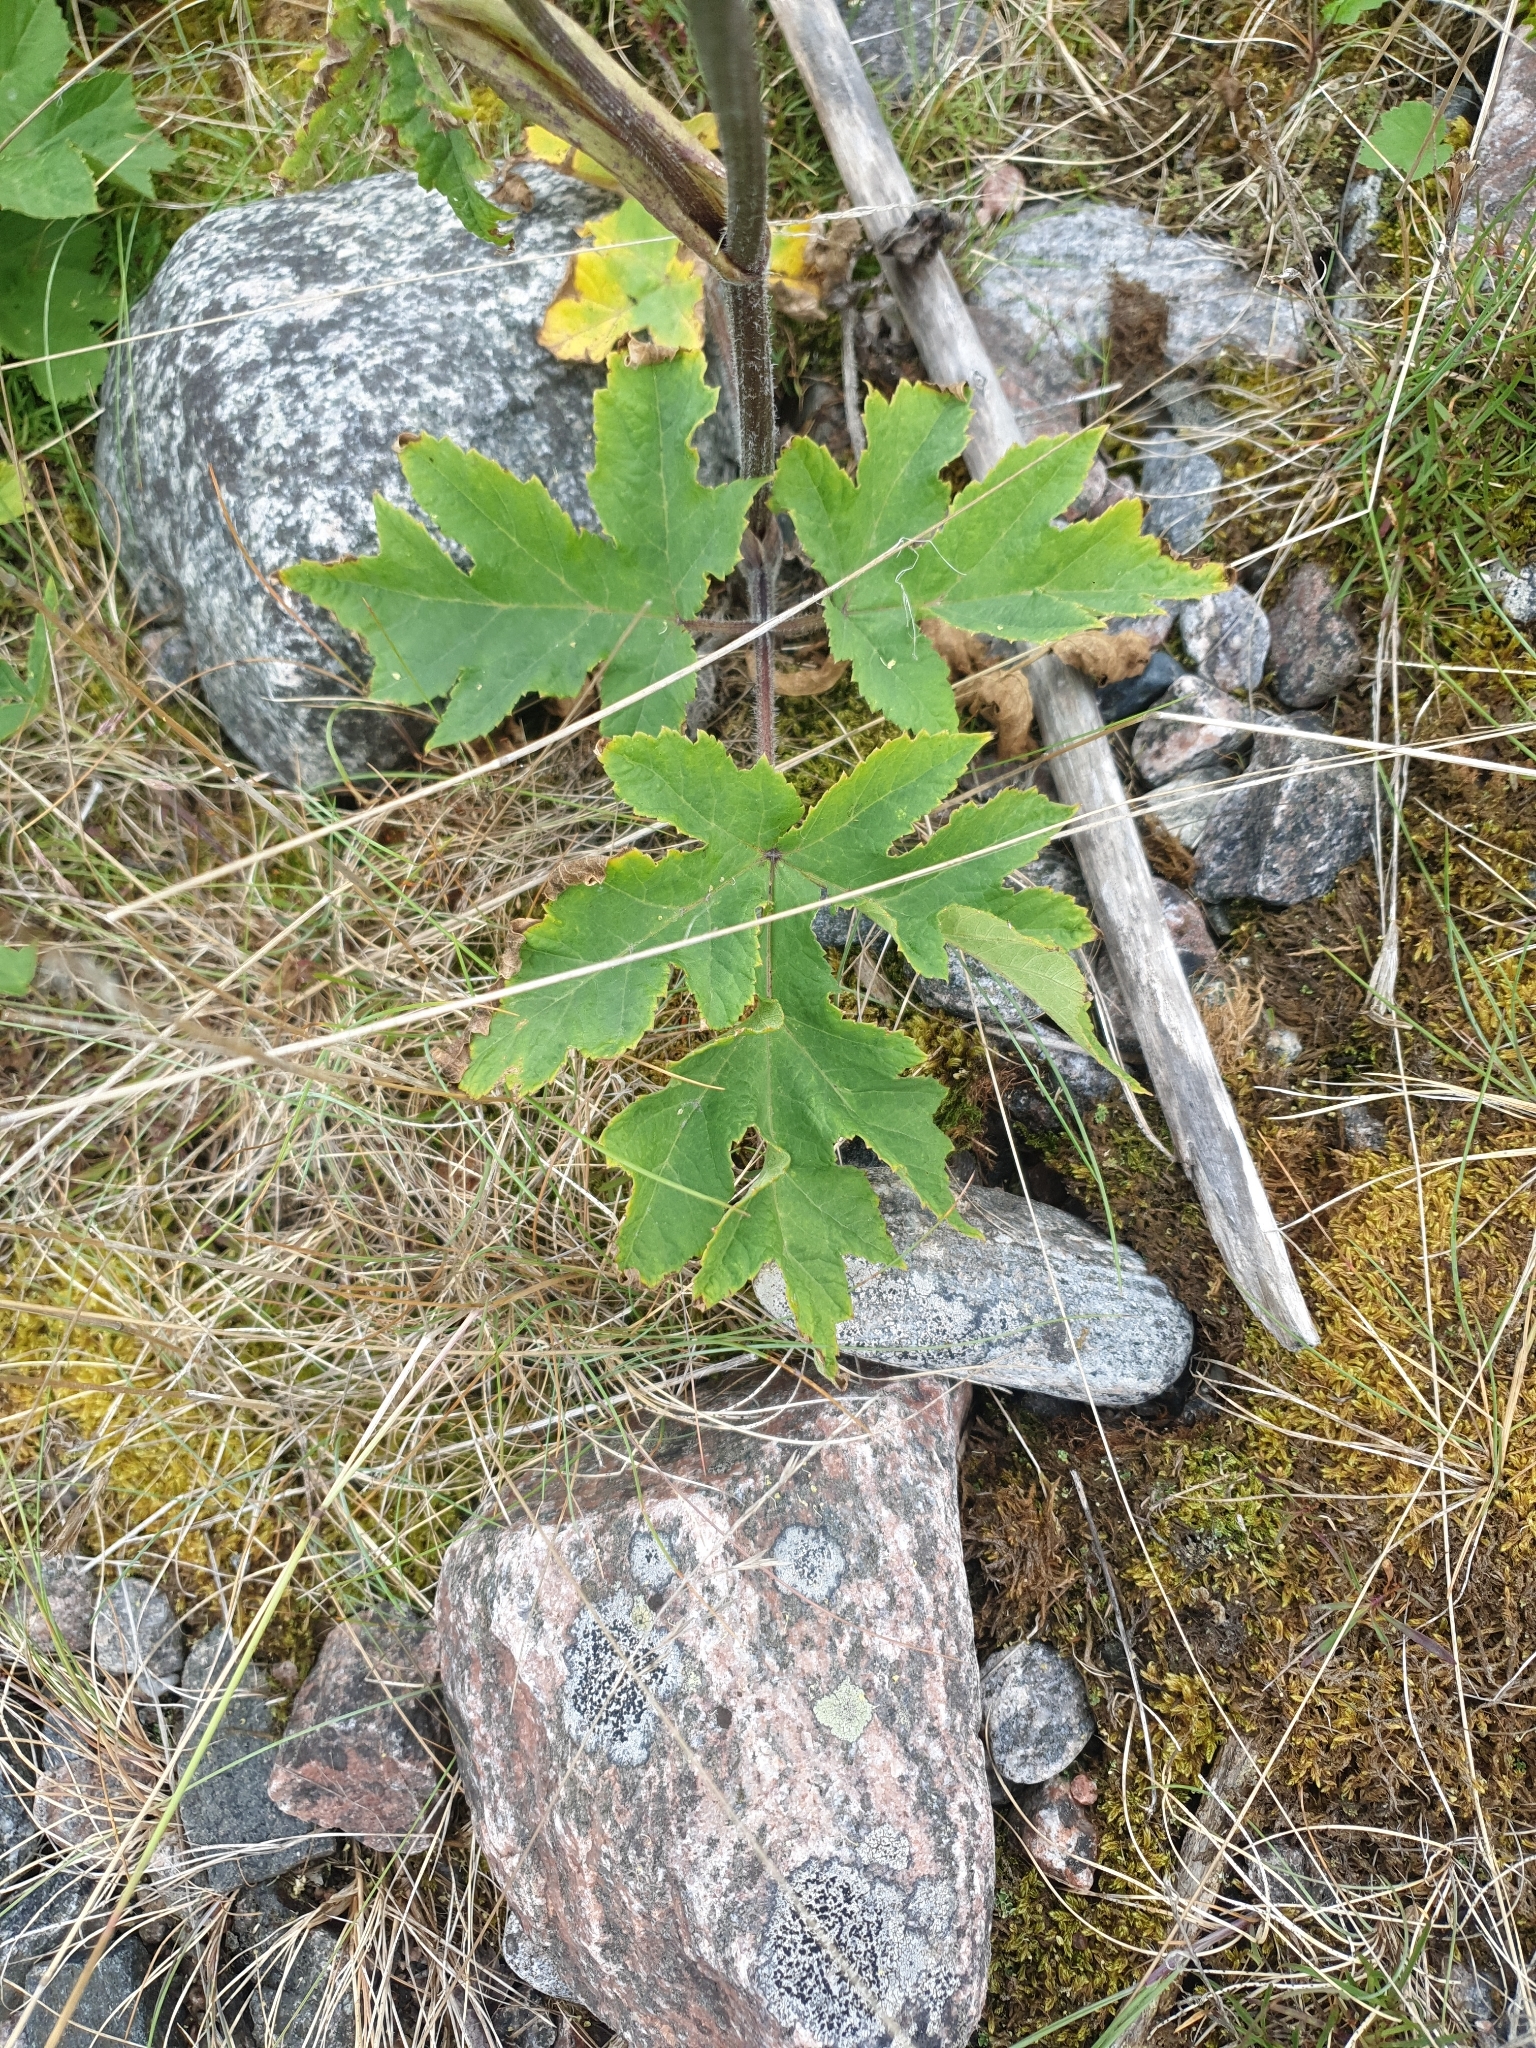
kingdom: Plantae
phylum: Tracheophyta
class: Magnoliopsida
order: Apiales
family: Apiaceae
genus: Heracleum
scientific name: Heracleum sphondylium
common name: Hogweed
